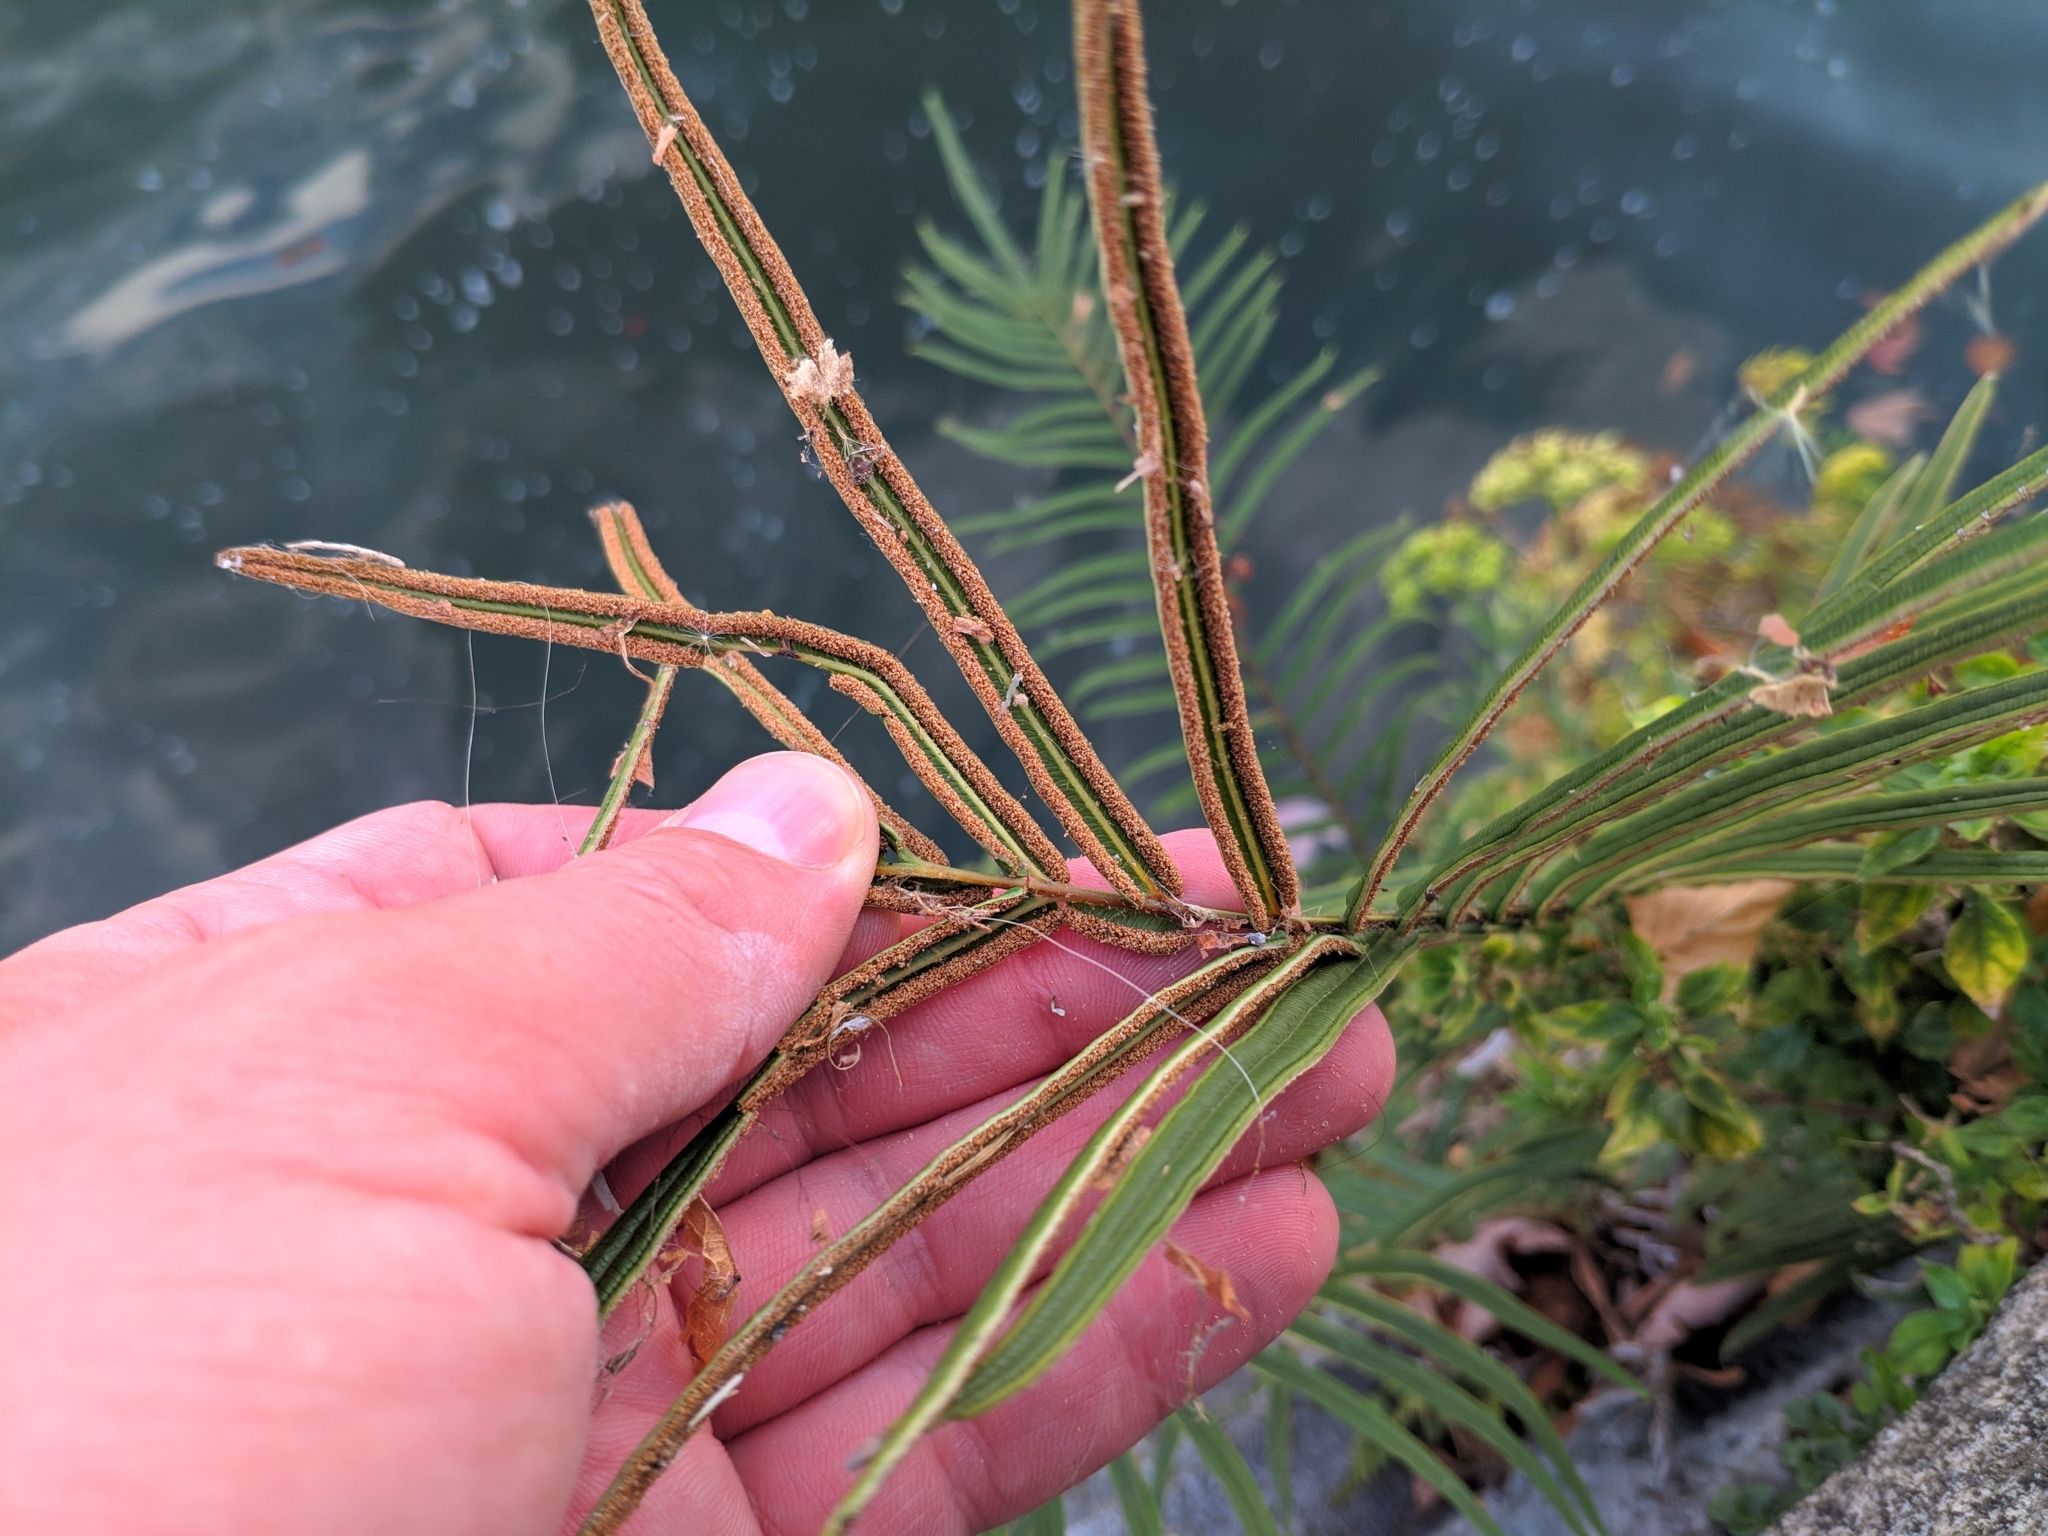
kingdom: Plantae
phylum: Tracheophyta
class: Polypodiopsida
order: Polypodiales
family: Pteridaceae
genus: Pteris
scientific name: Pteris vittata
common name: Ladder brake
